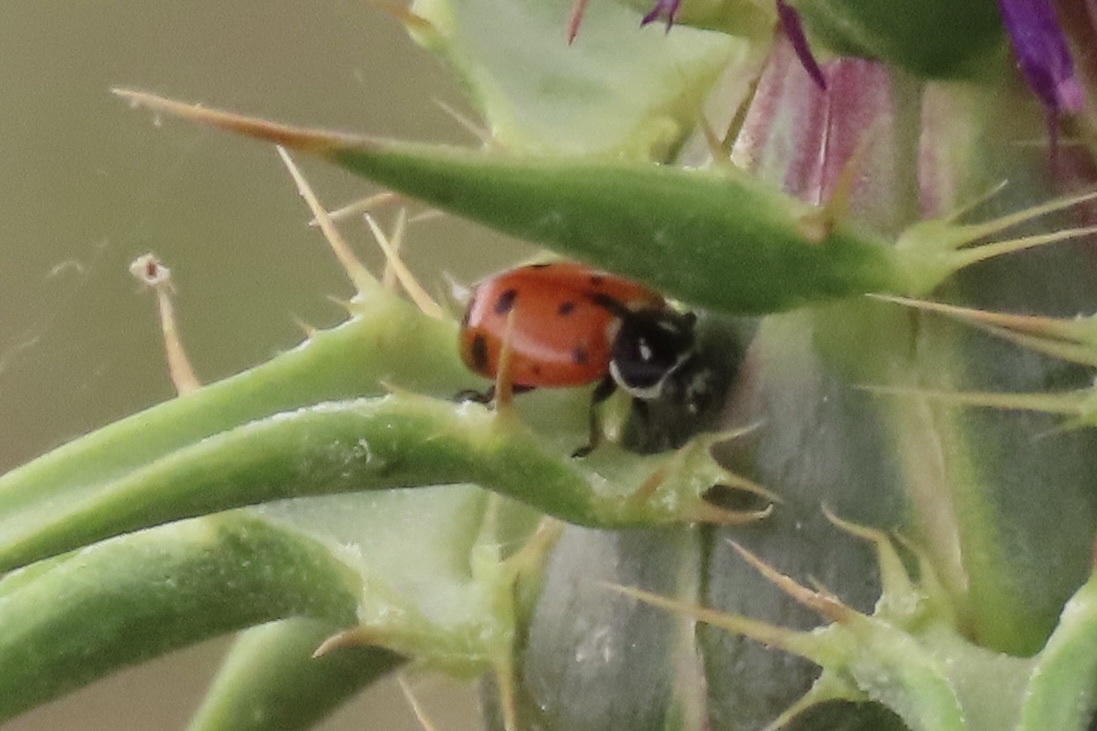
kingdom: Animalia
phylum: Arthropoda
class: Insecta
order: Coleoptera
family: Coccinellidae
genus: Hippodamia
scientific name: Hippodamia convergens
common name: Convergent lady beetle
